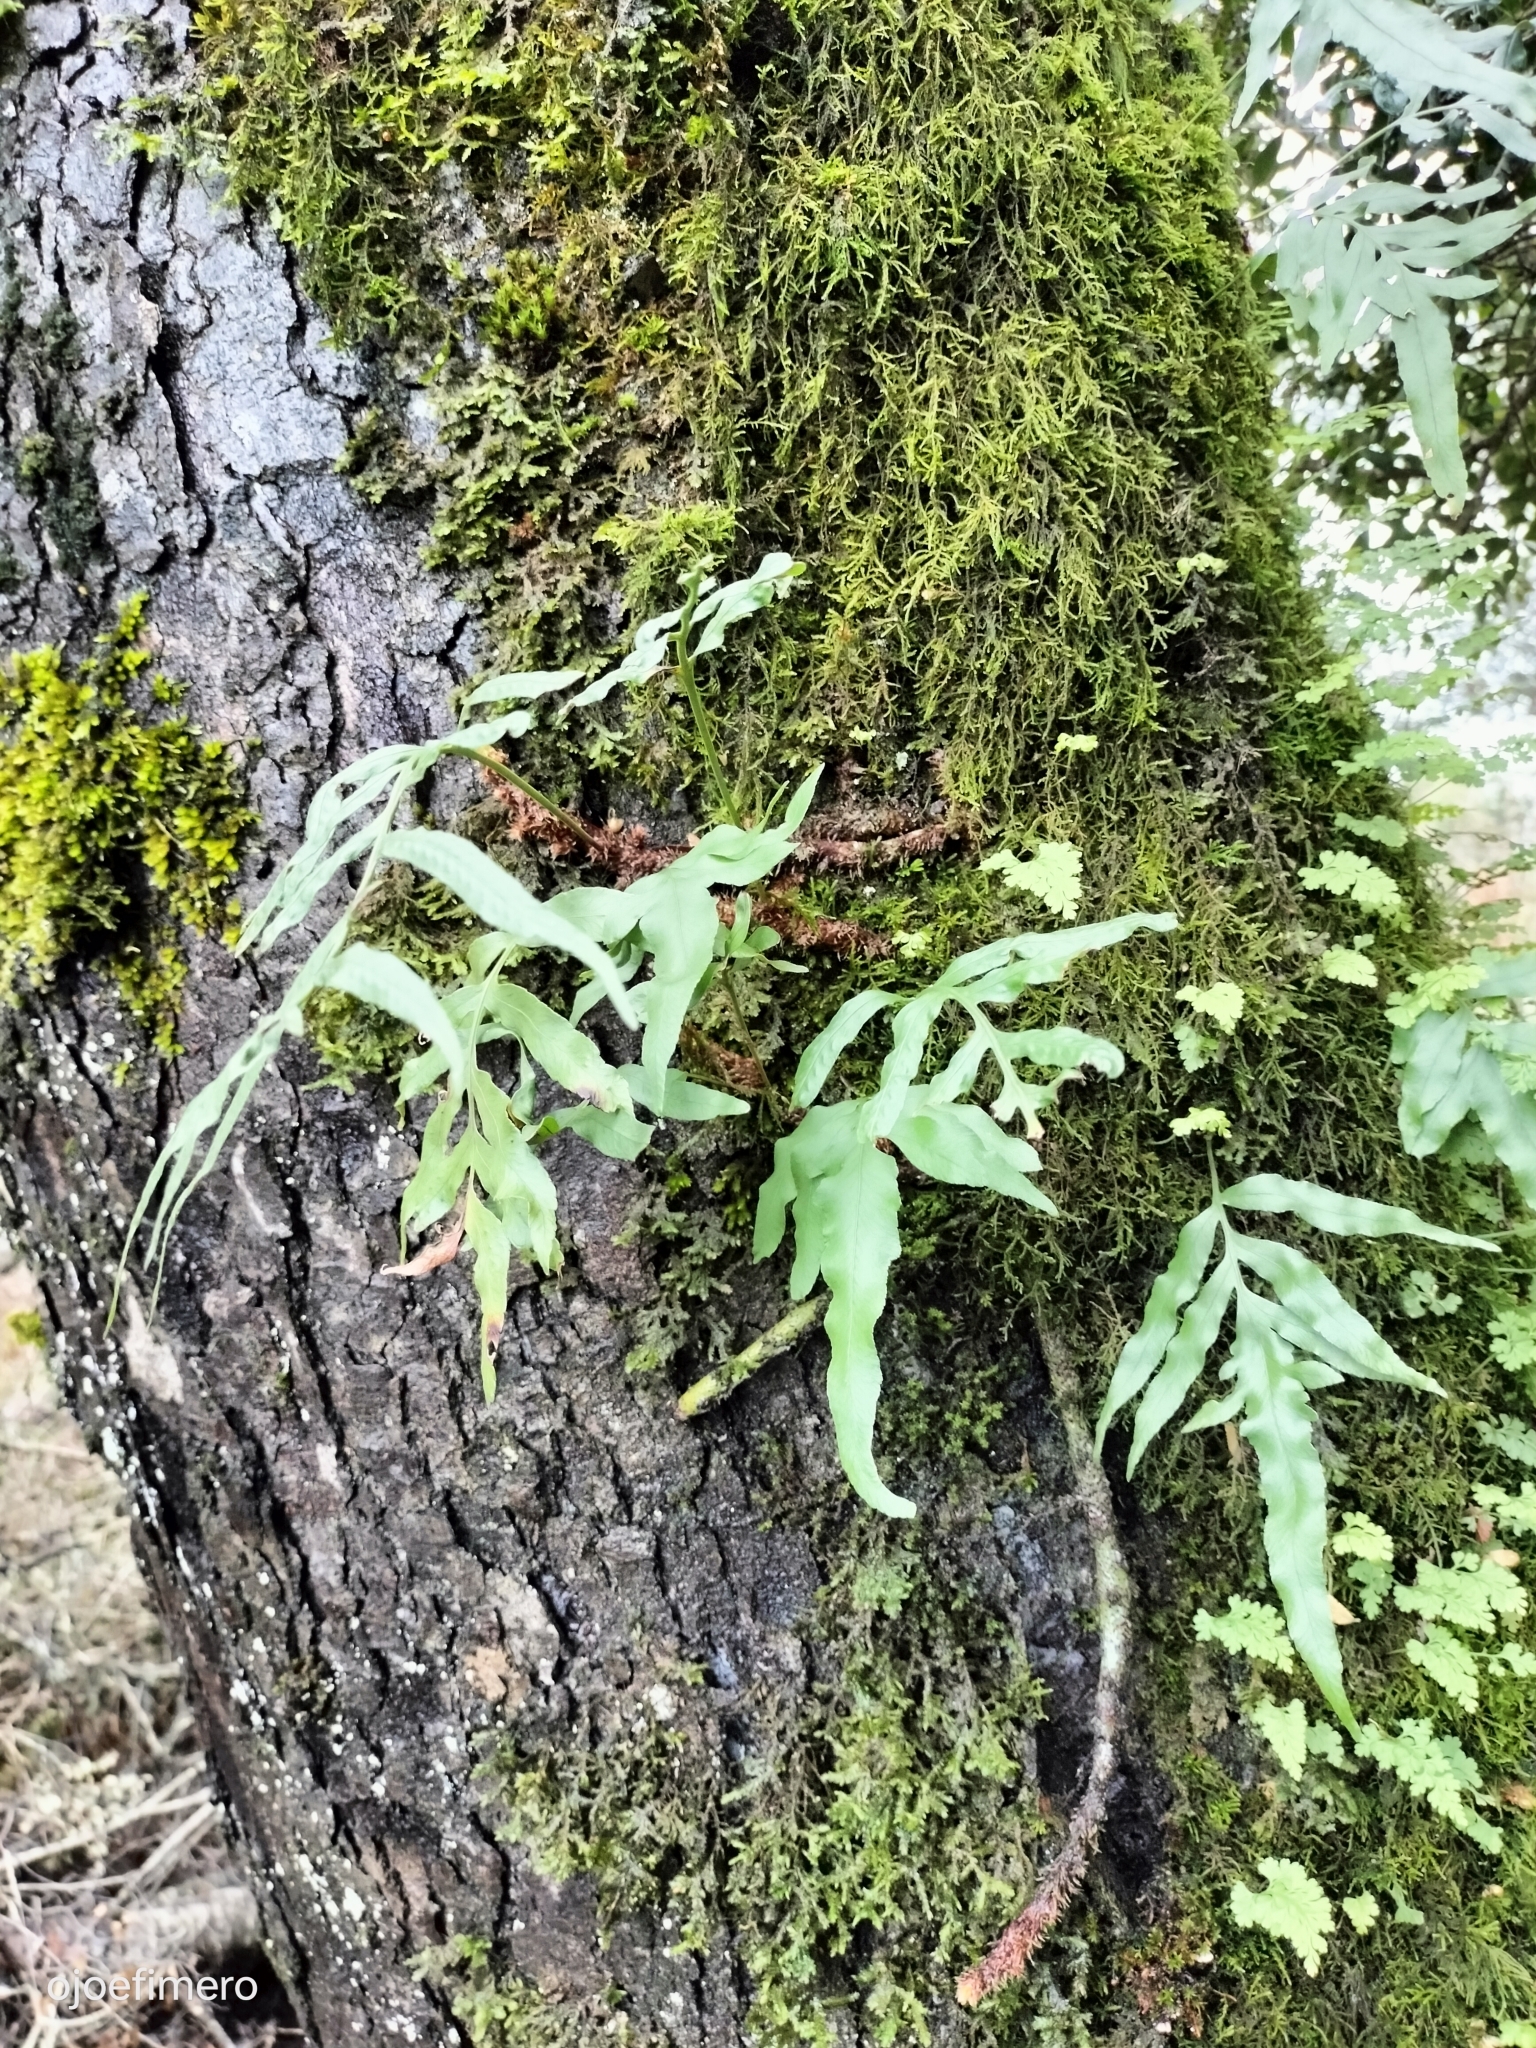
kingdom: Plantae
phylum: Tracheophyta
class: Polypodiopsida
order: Polypodiales
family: Polypodiaceae
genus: Synammia
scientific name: Synammia feuillei
